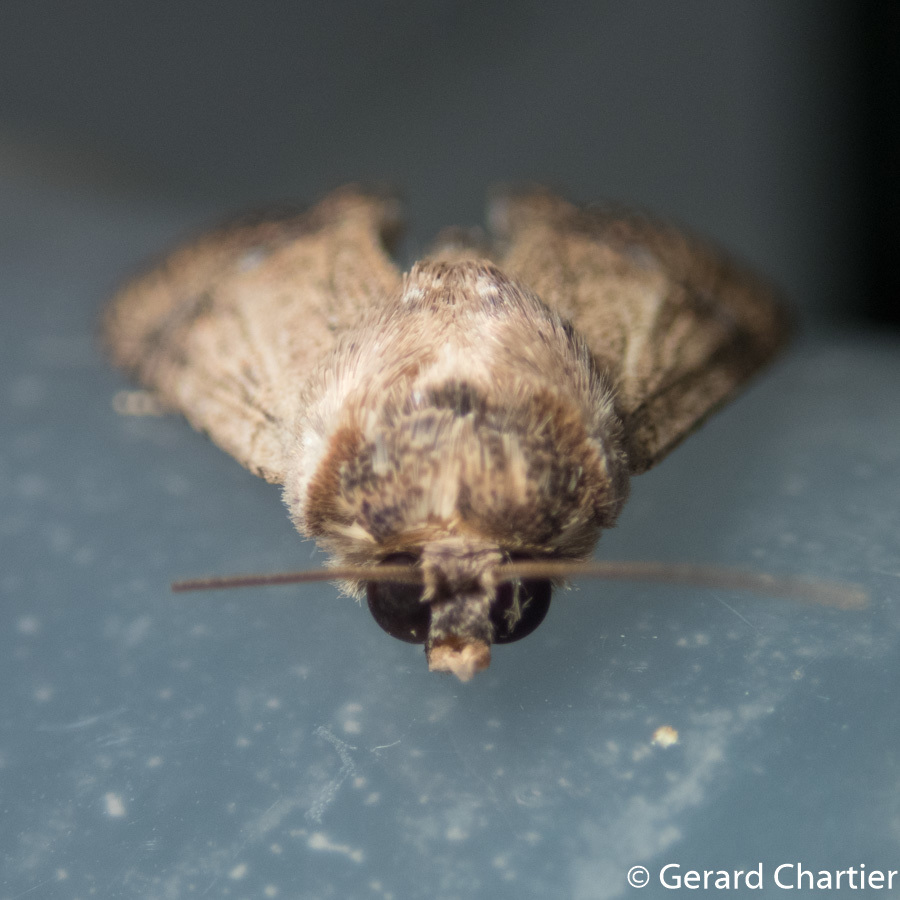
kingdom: Animalia
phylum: Arthropoda
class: Insecta
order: Lepidoptera
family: Euteliidae
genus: Stictoptera
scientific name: Stictoptera trajiciens
